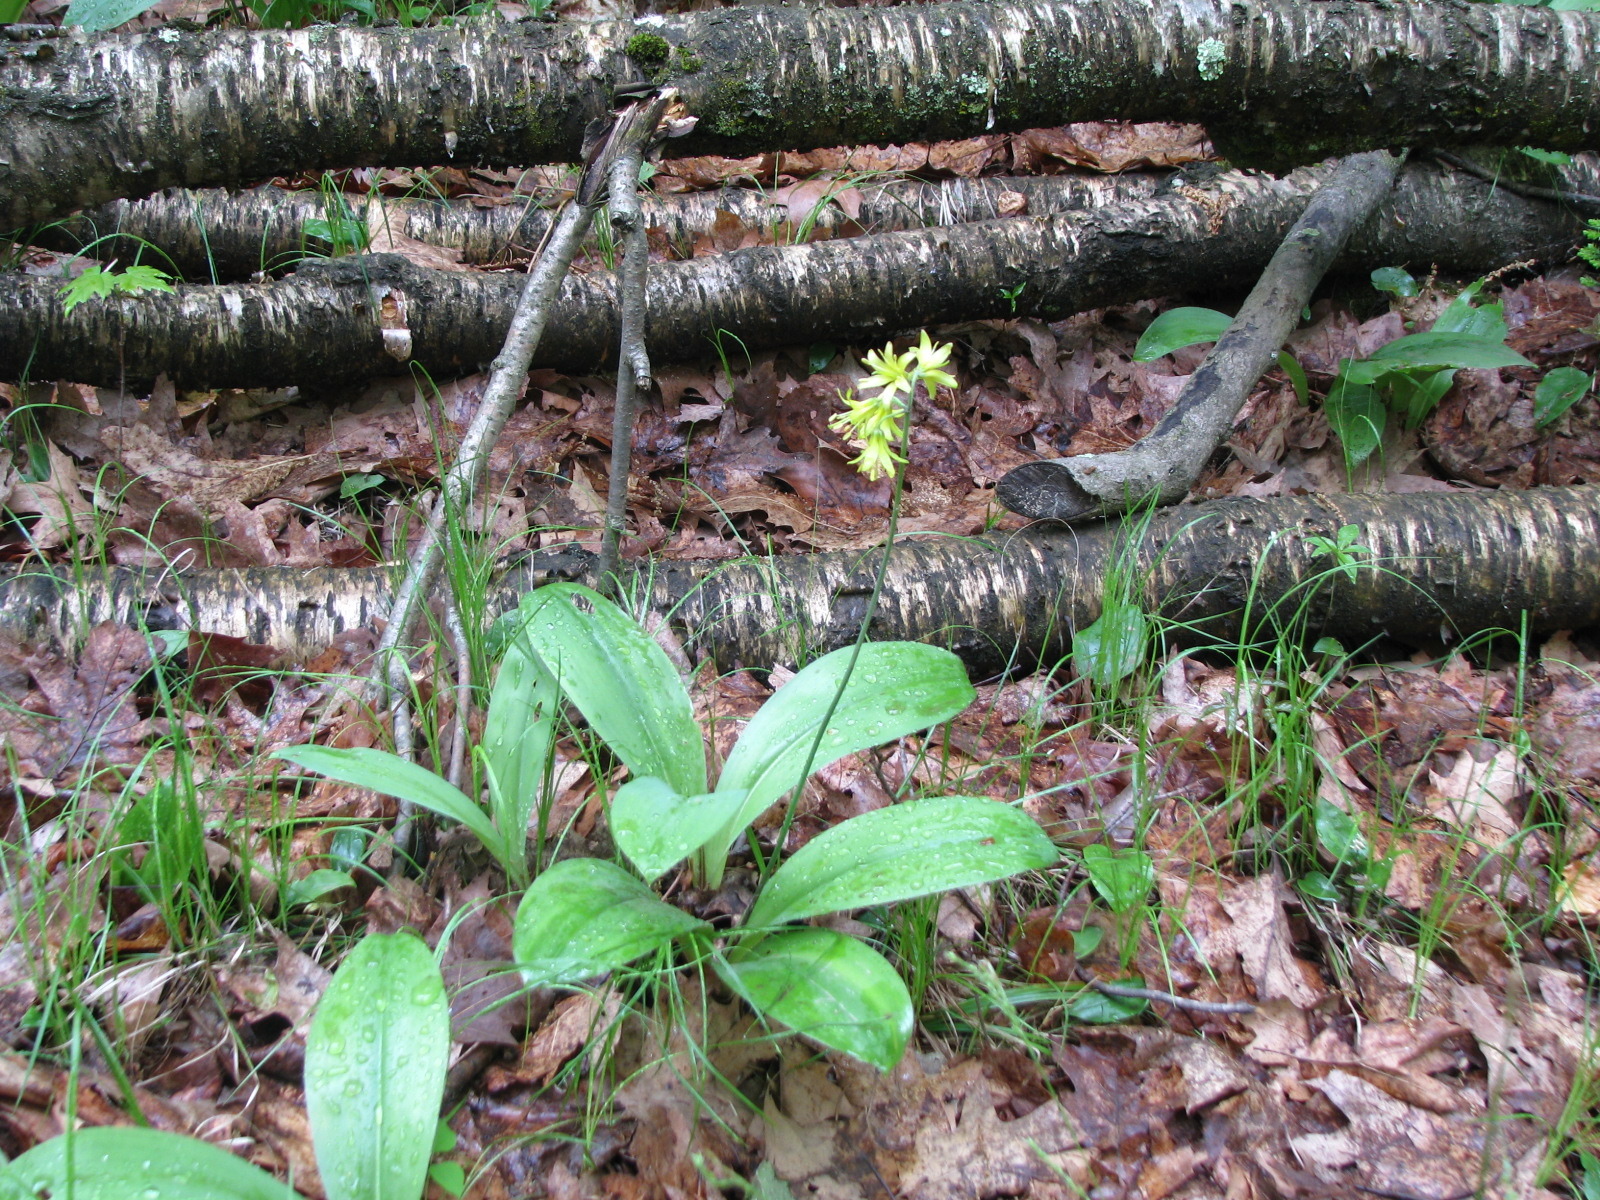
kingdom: Plantae
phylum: Tracheophyta
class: Liliopsida
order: Liliales
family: Liliaceae
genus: Clintonia
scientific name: Clintonia borealis
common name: Yellow clintonia
